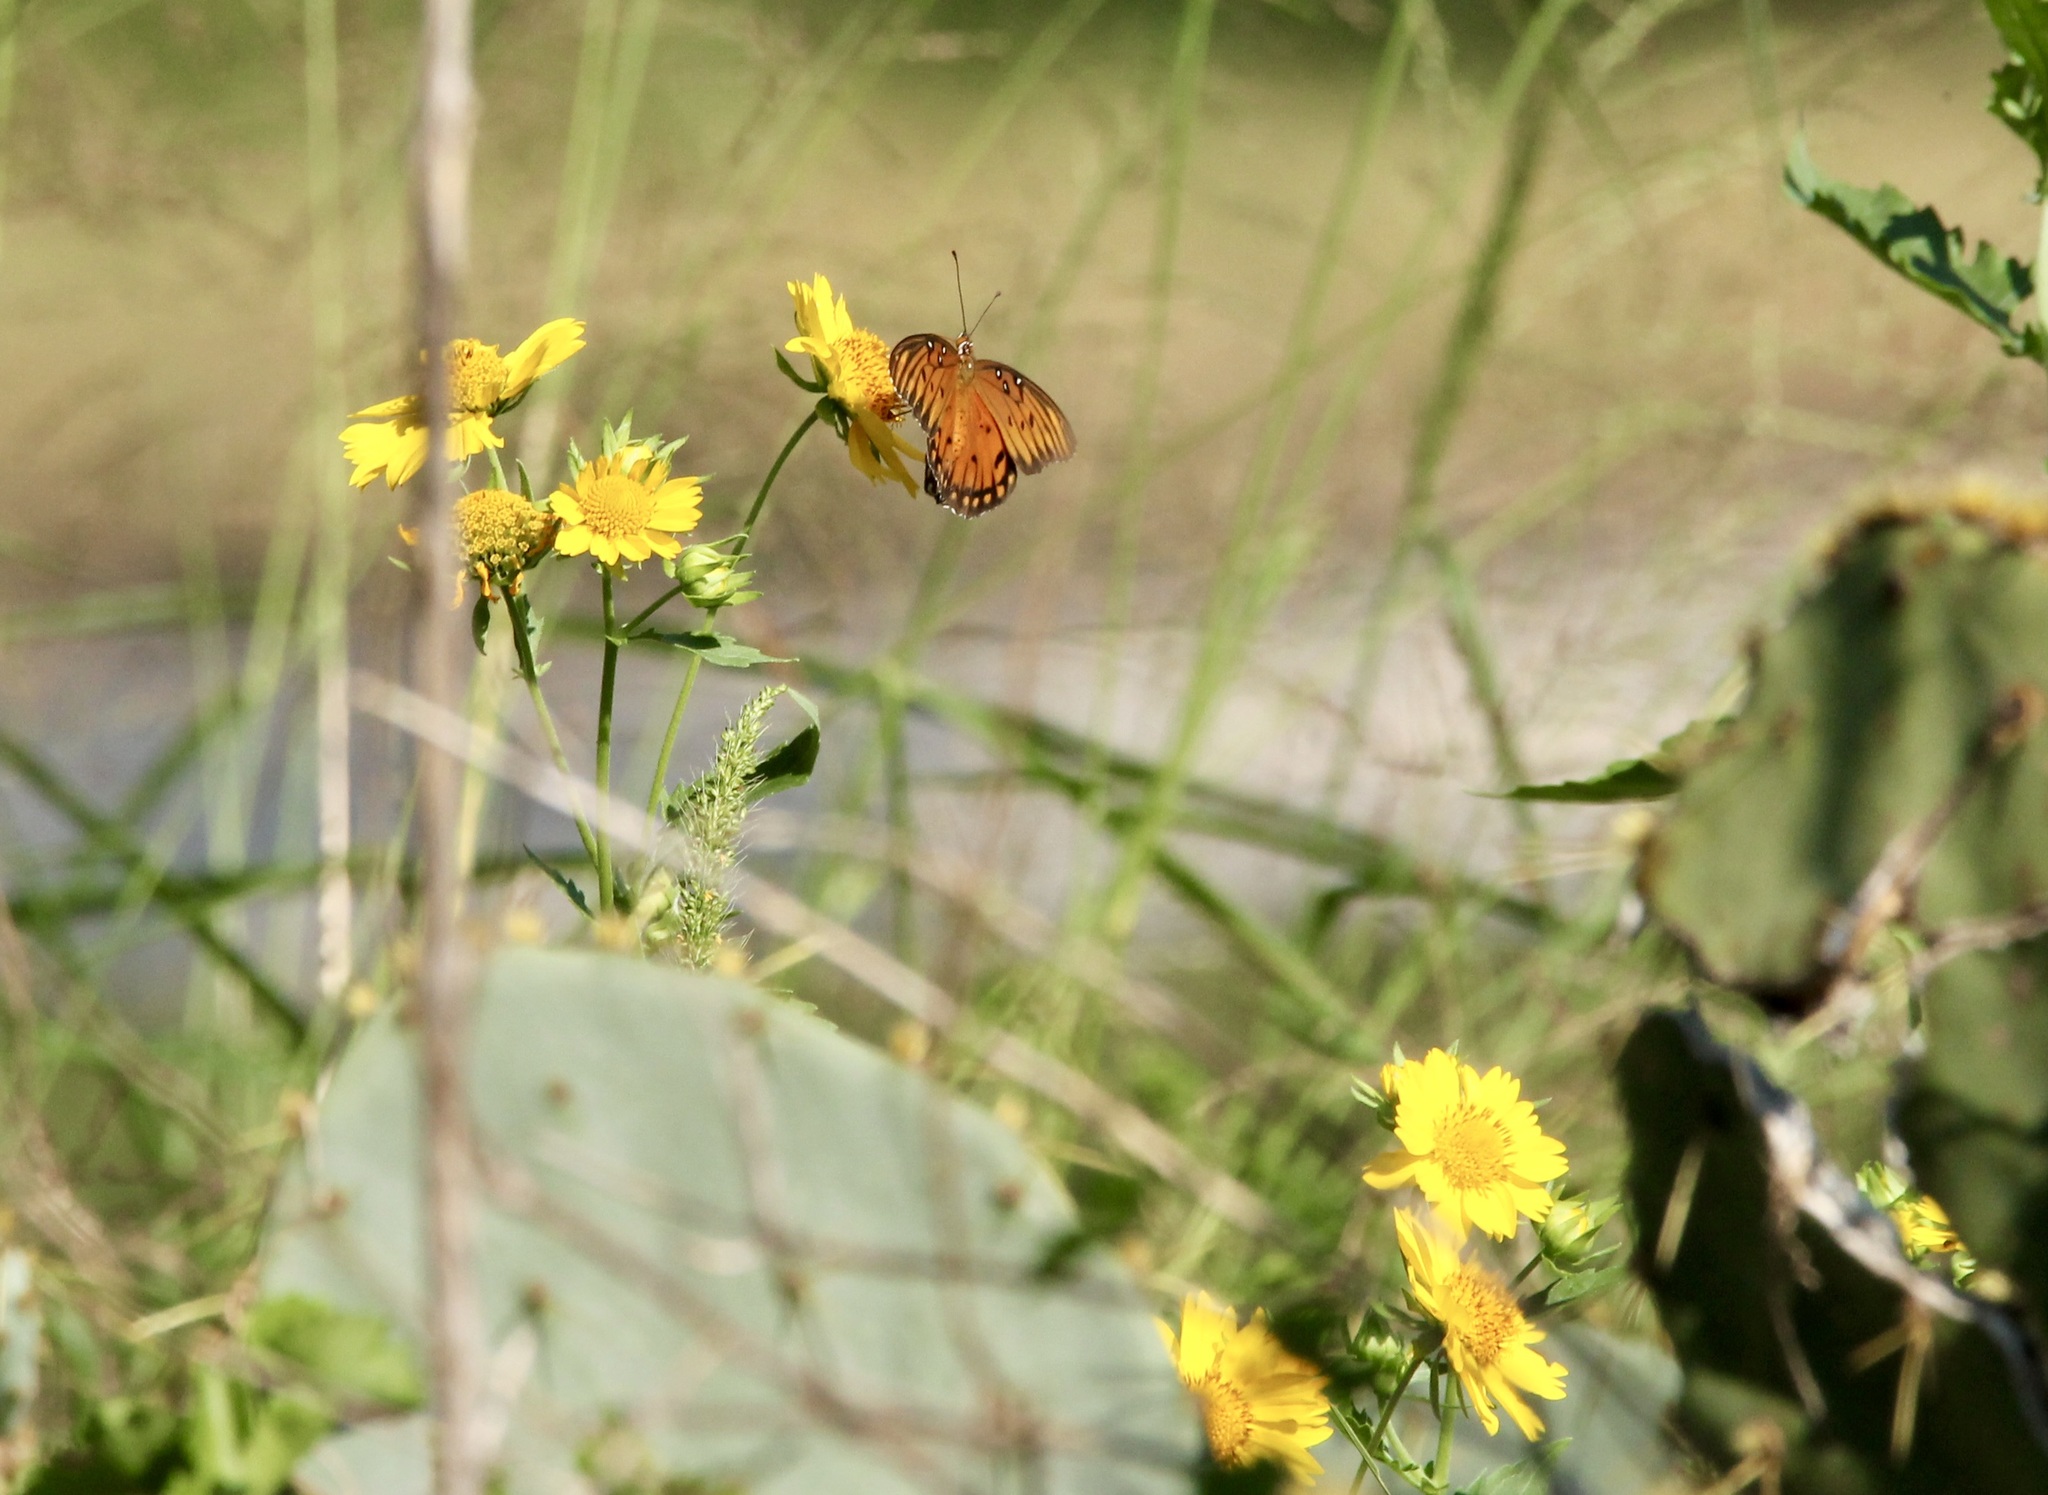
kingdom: Animalia
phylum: Arthropoda
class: Insecta
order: Lepidoptera
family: Nymphalidae
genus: Dione
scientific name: Dione vanillae
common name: Gulf fritillary
